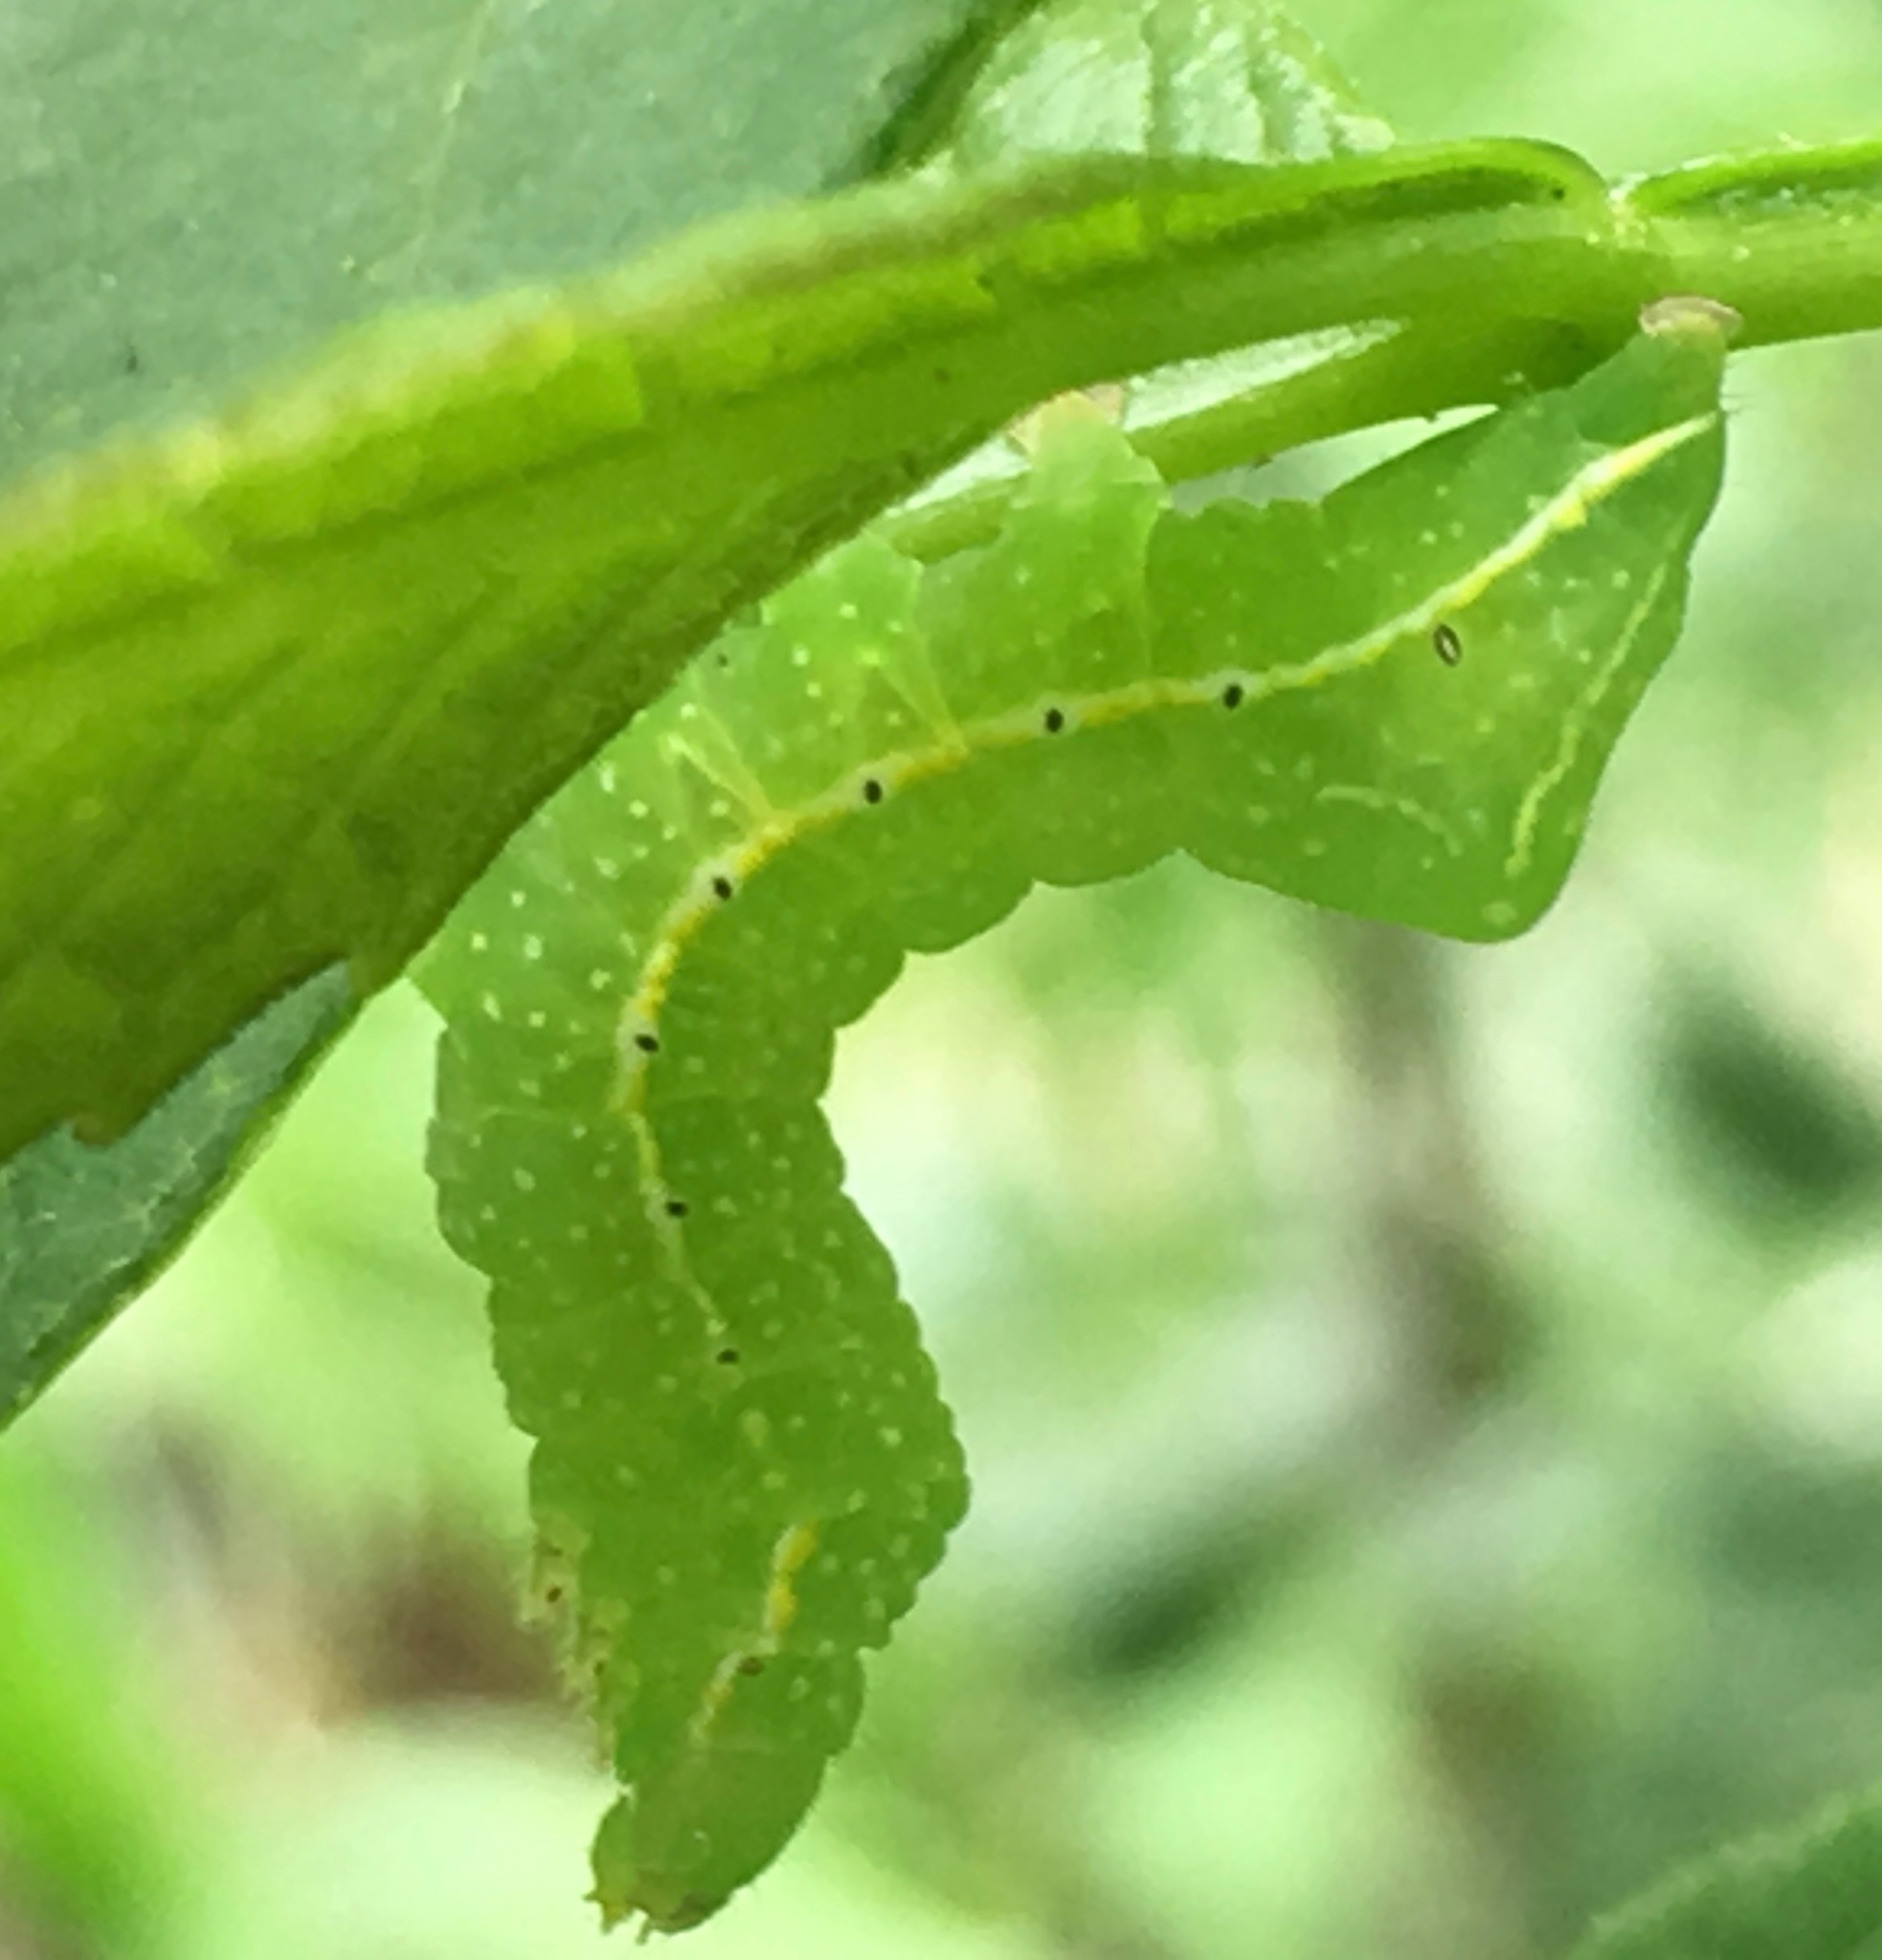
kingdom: Animalia
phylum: Arthropoda
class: Insecta
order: Lepidoptera
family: Noctuidae
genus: Amphipyra
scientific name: Amphipyra pyramidoides
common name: American copper underwing
